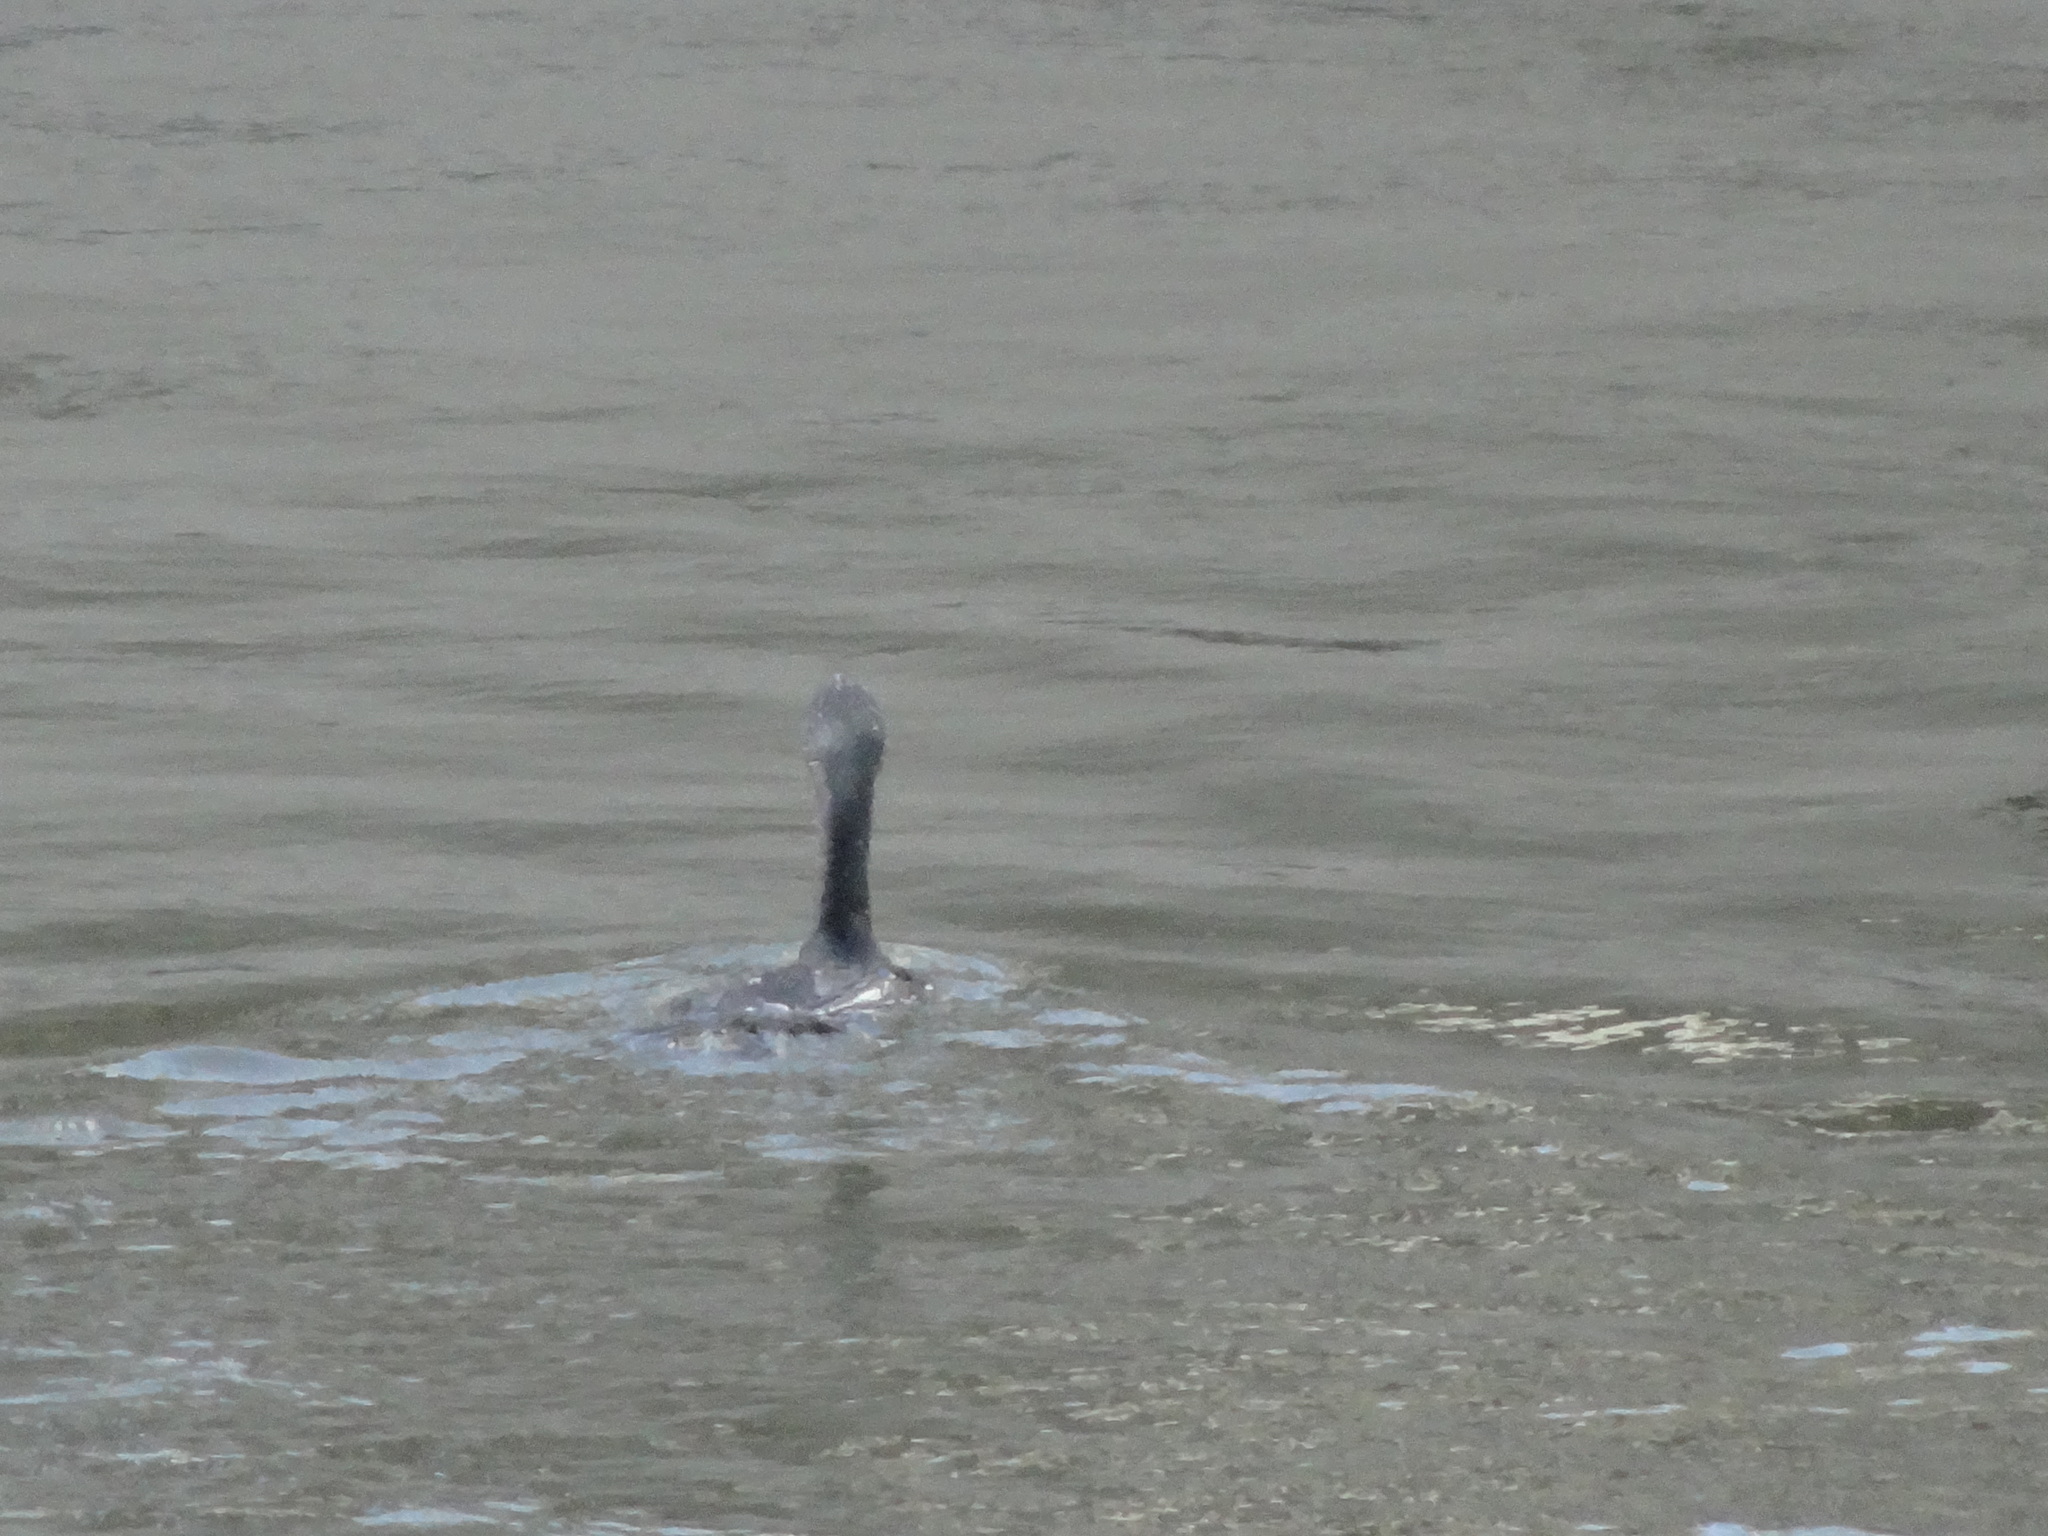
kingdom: Animalia
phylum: Chordata
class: Aves
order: Suliformes
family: Phalacrocoracidae
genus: Phalacrocorax
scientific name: Phalacrocorax carbo
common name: Great cormorant
